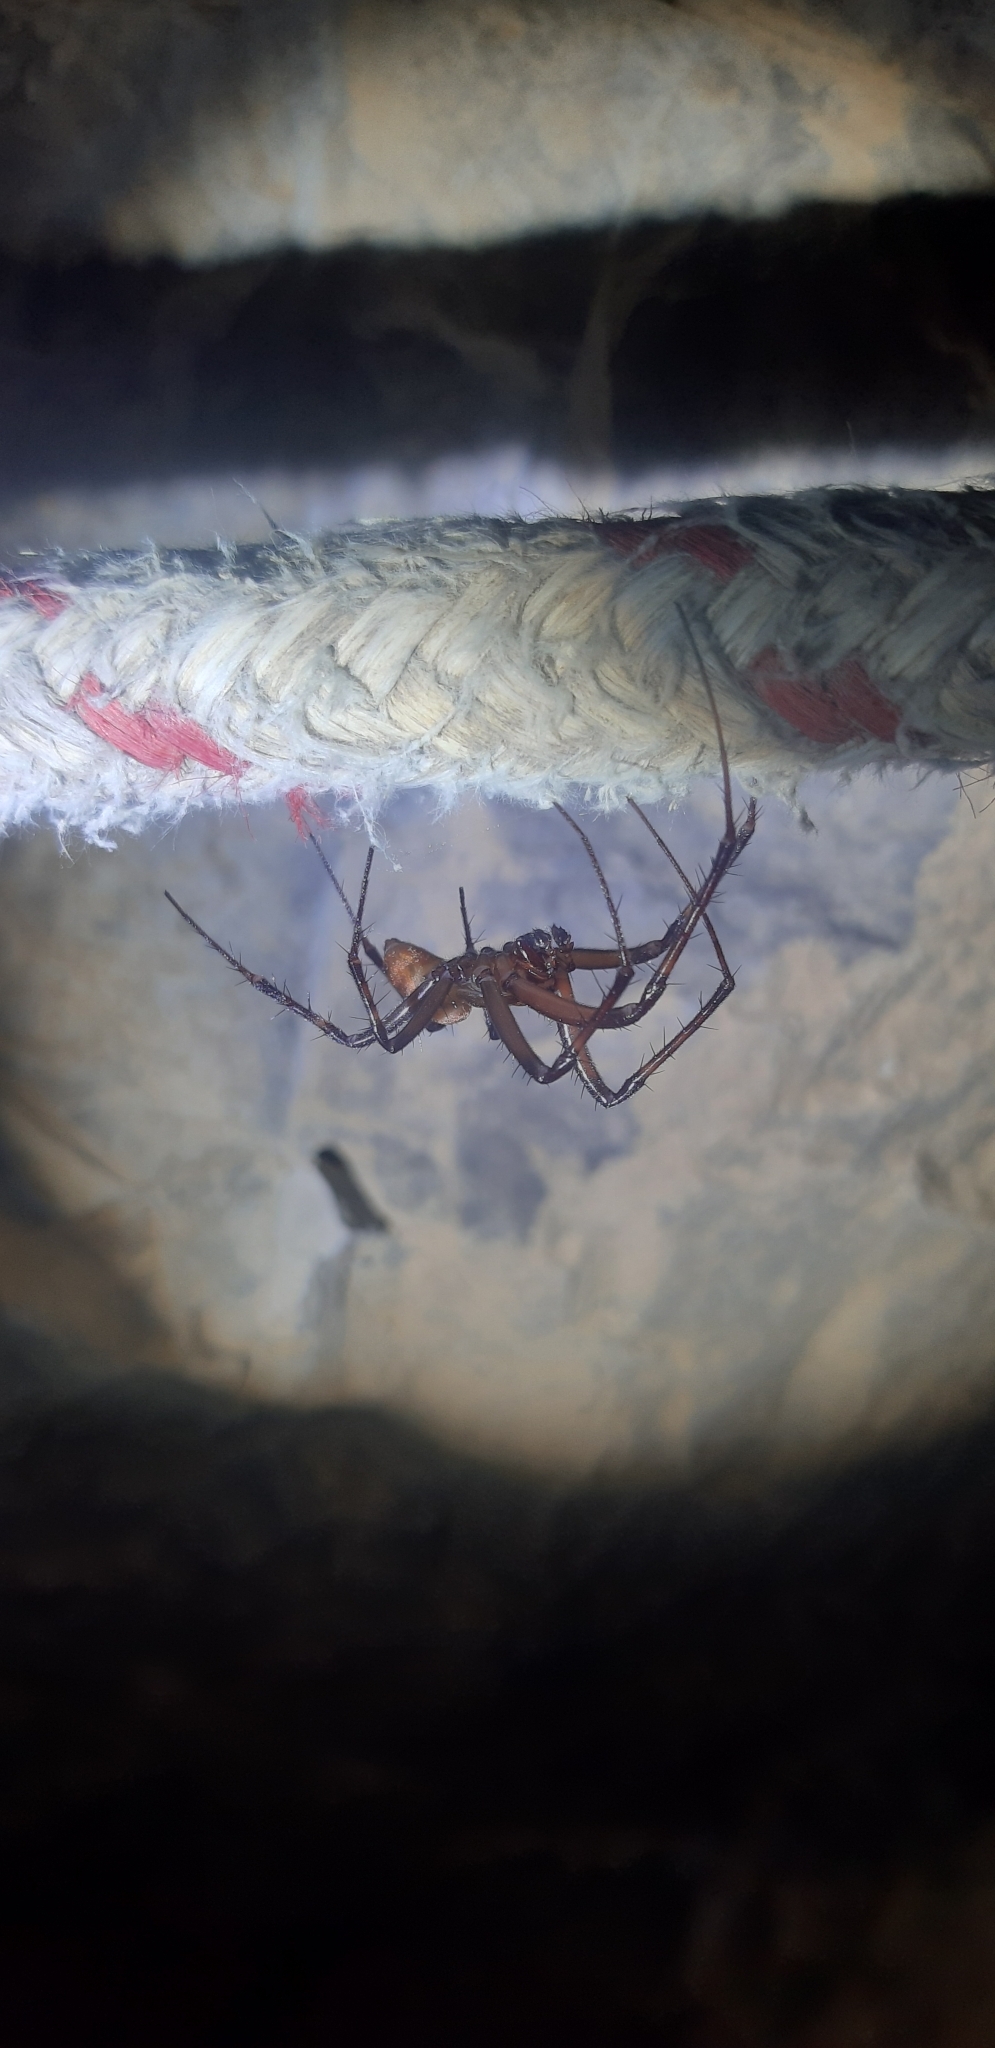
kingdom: Animalia
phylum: Arthropoda
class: Arachnida
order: Araneae
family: Tetragnathidae
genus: Meta
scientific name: Meta menardi
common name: Cave spider
